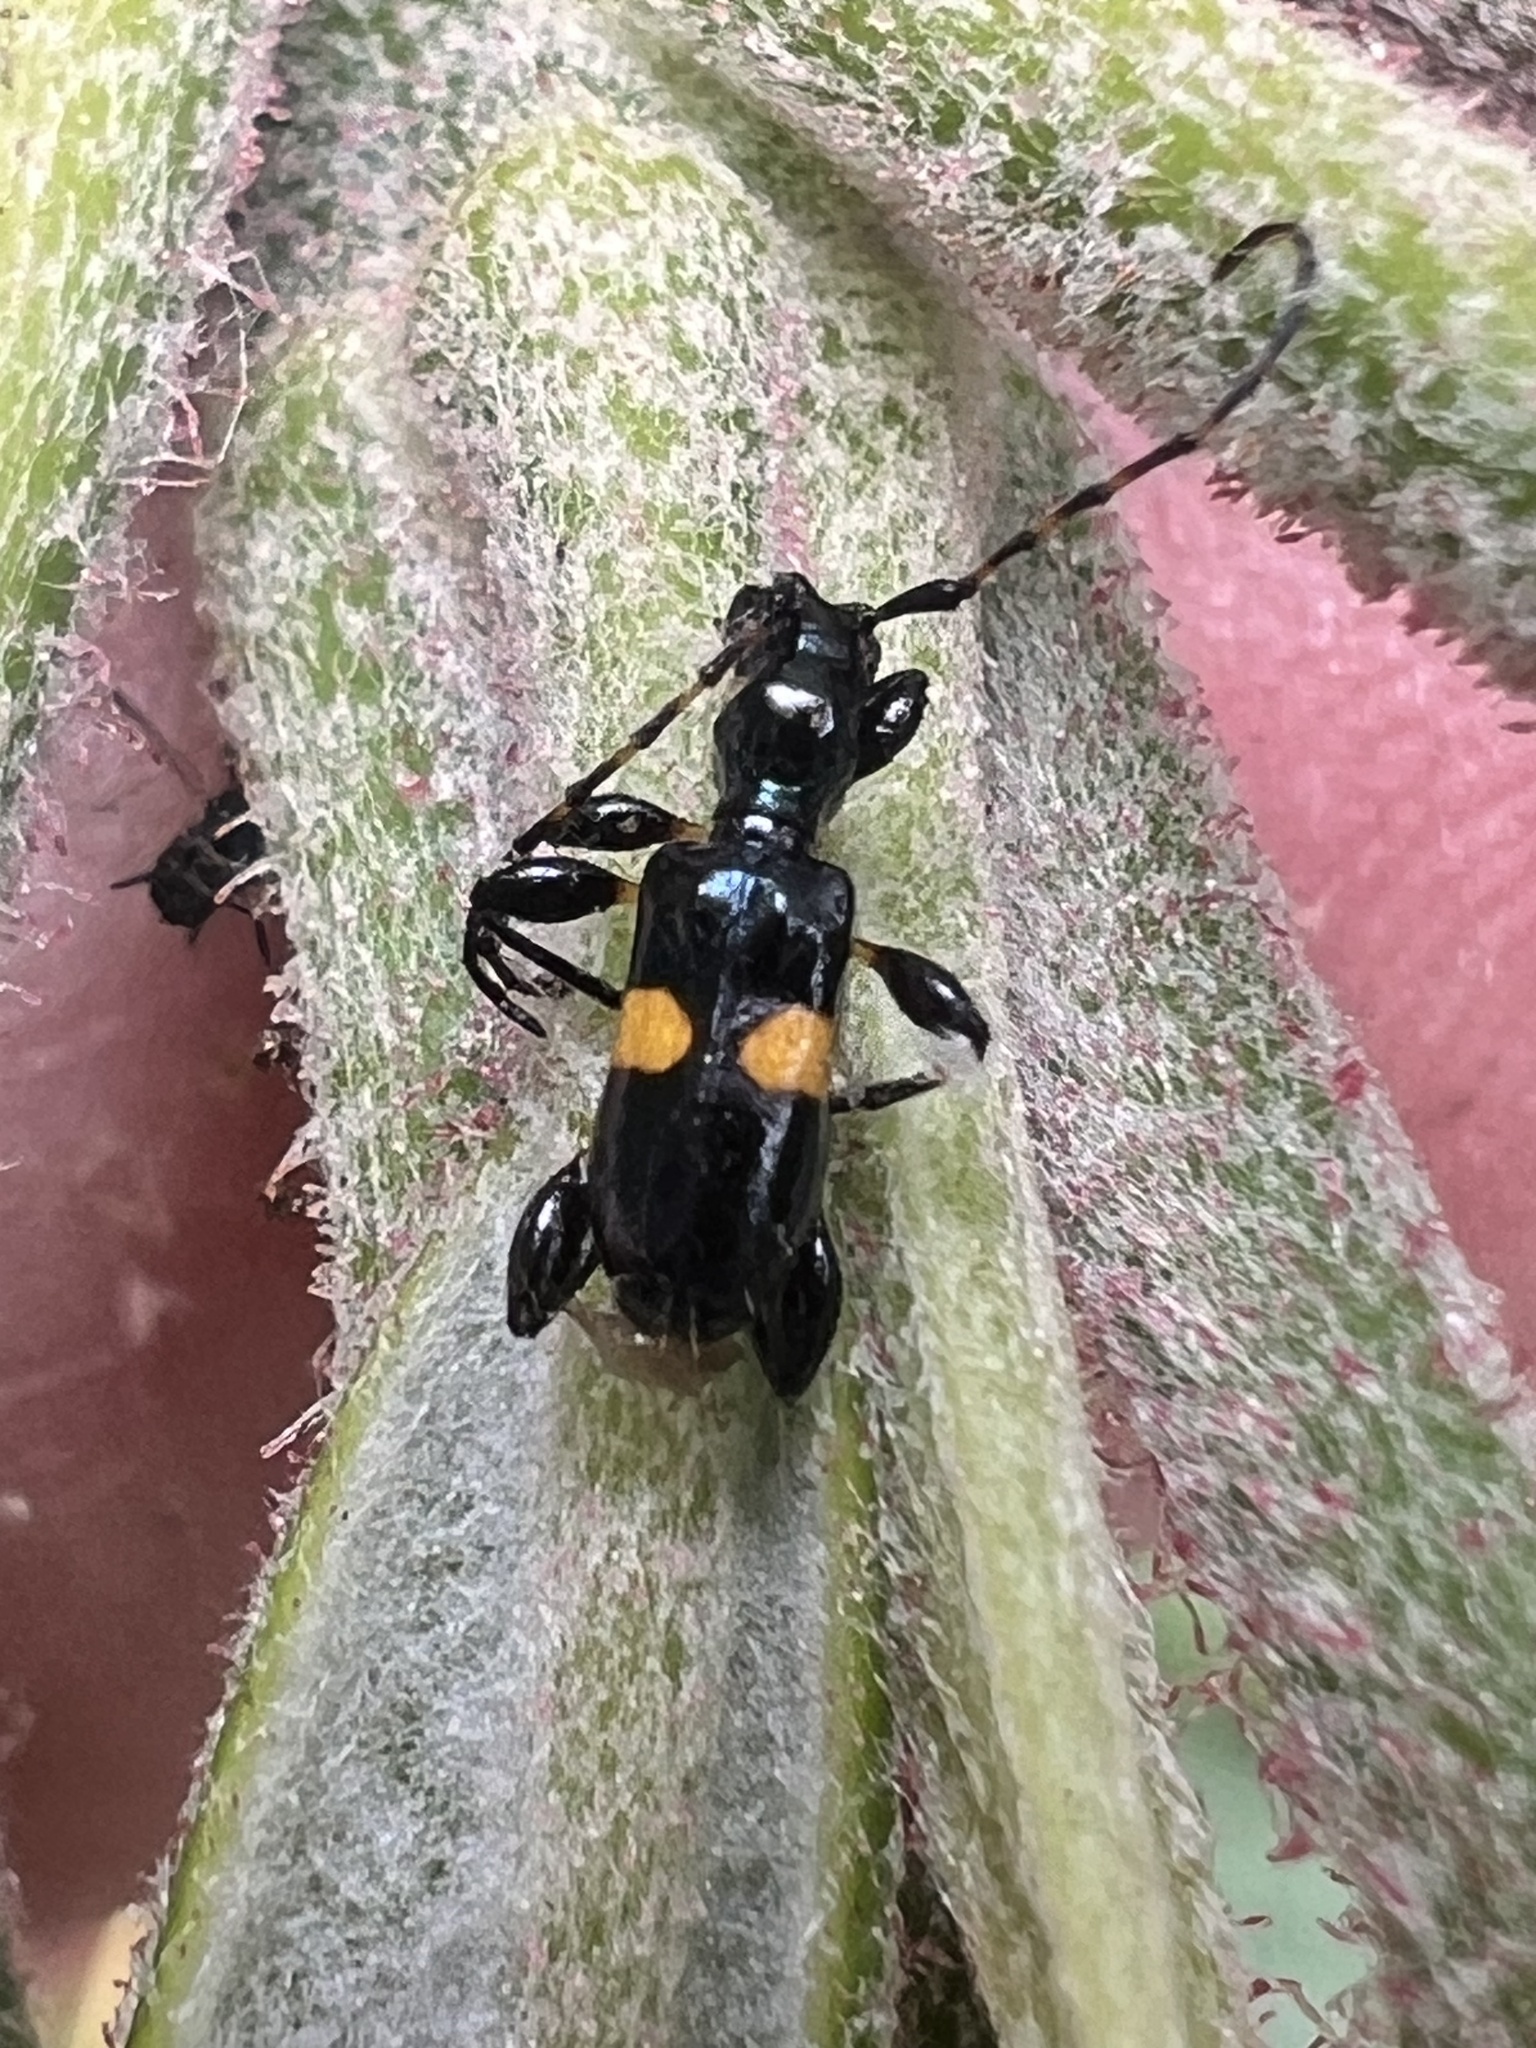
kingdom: Animalia
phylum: Arthropoda
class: Insecta
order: Coleoptera
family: Cerambycidae
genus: Zorion
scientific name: Zorion guttigerum
